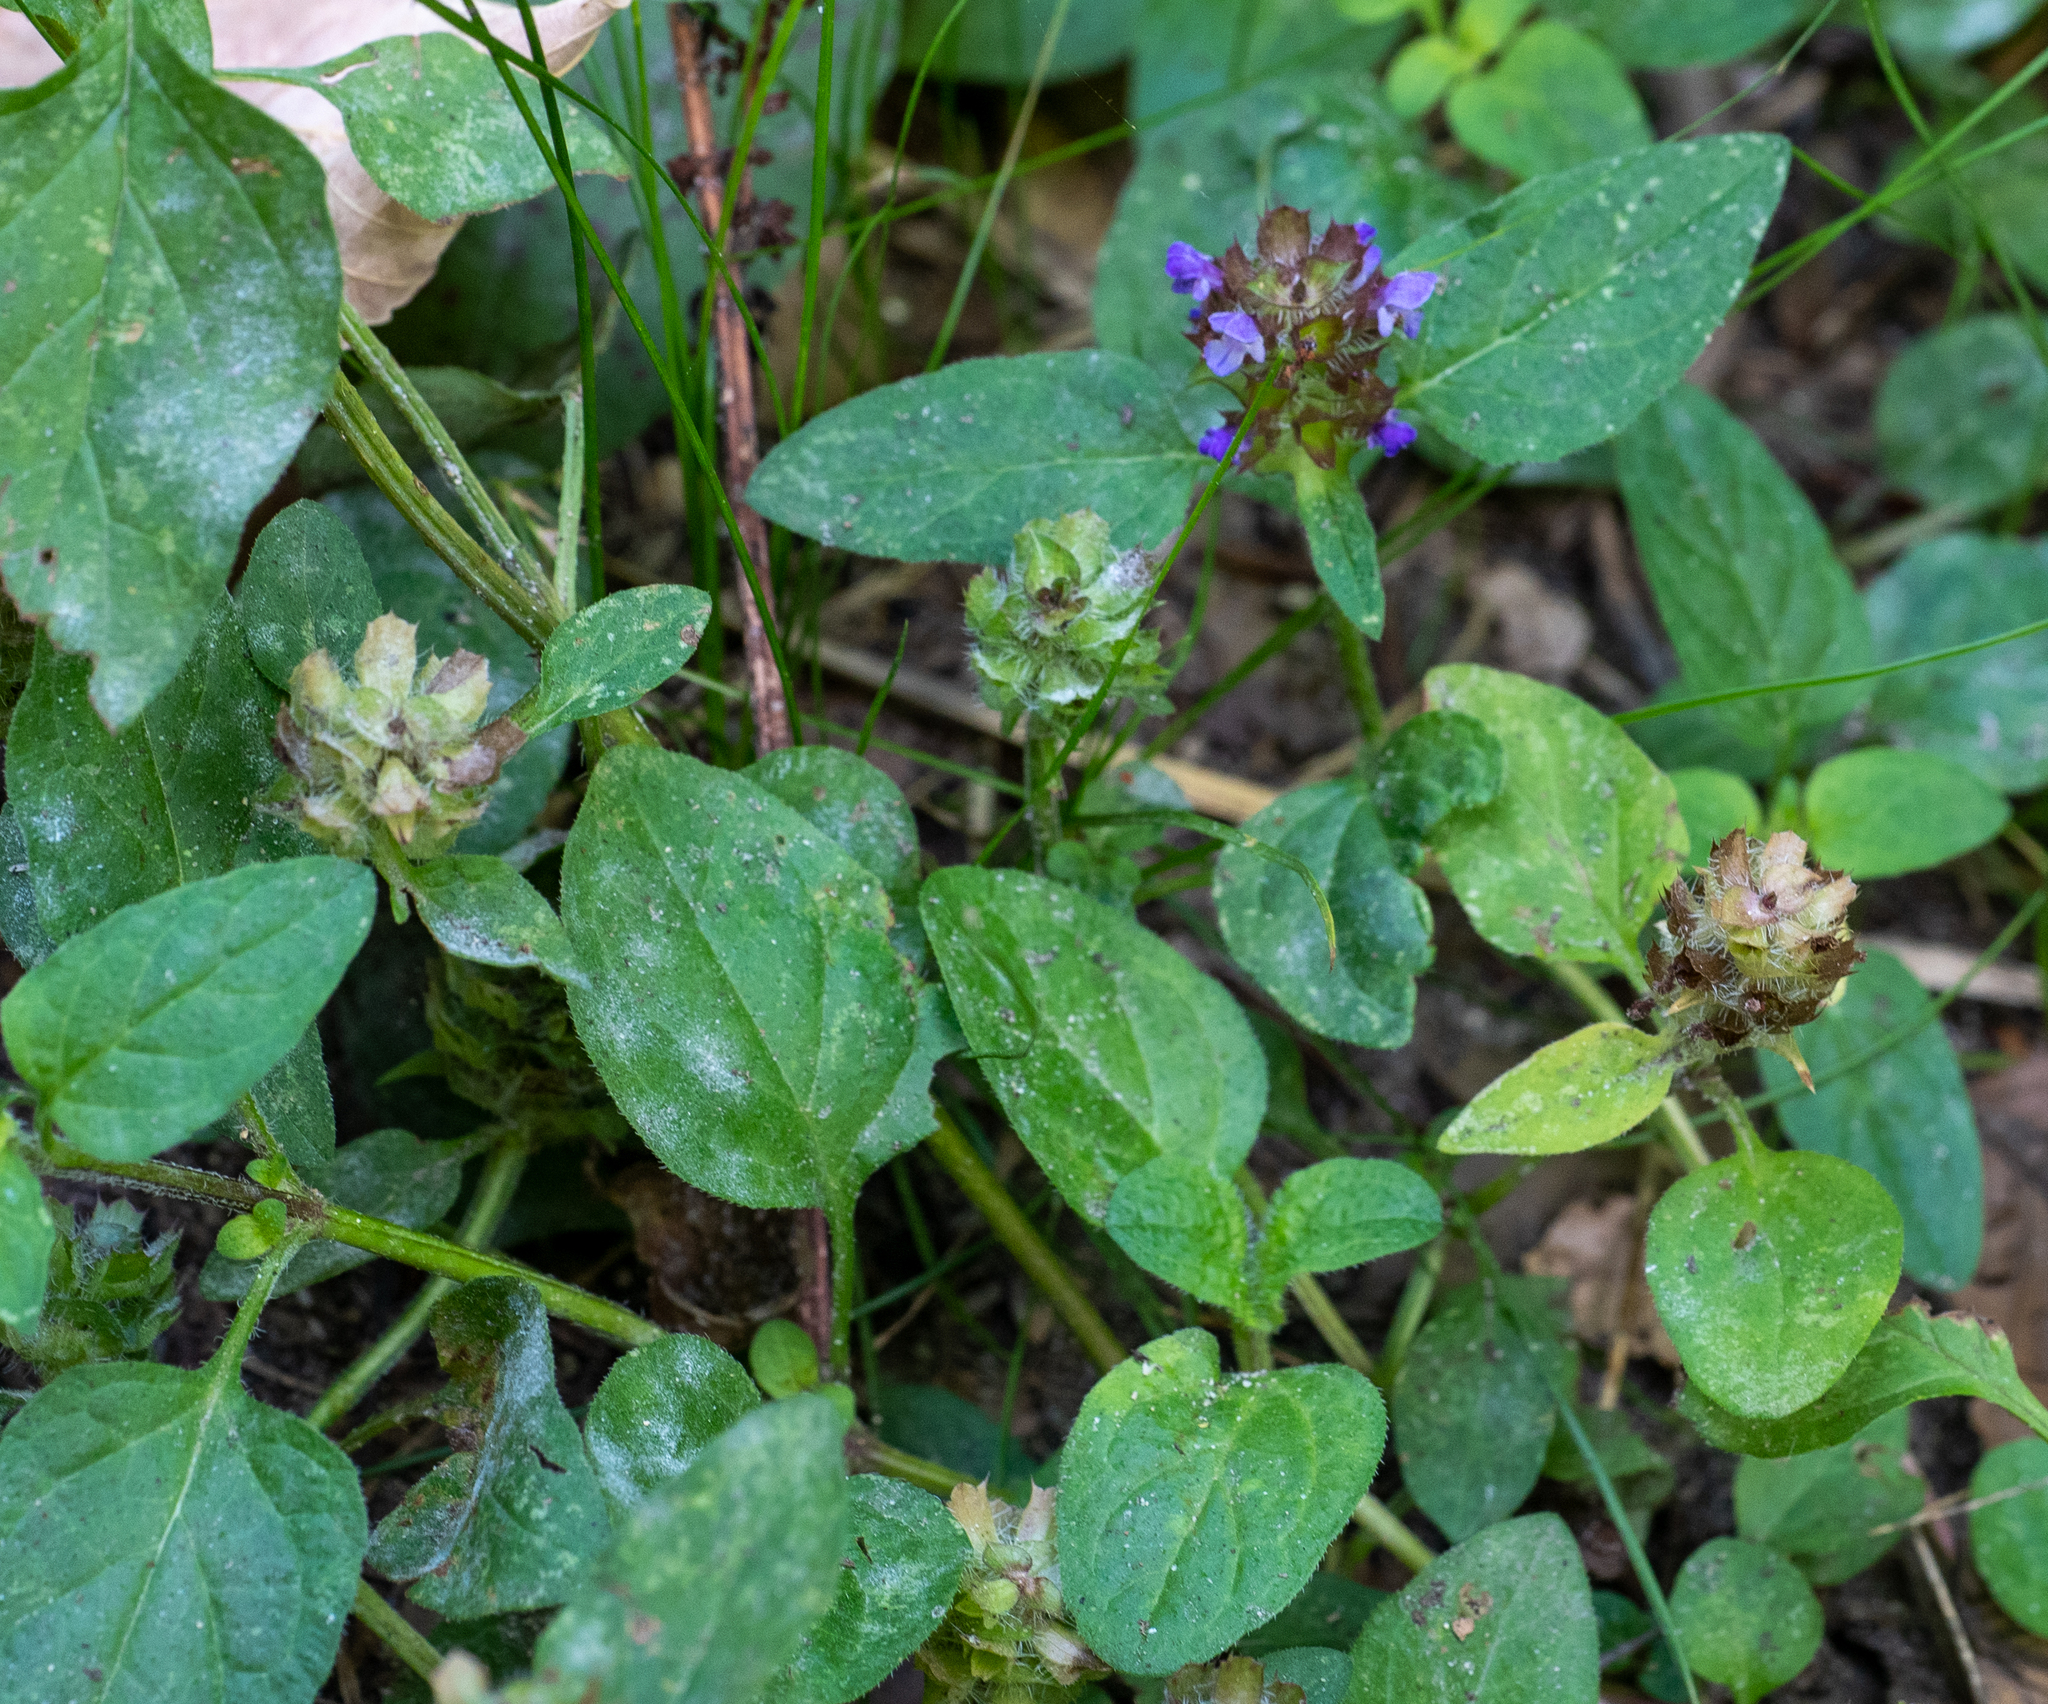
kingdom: Plantae
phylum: Tracheophyta
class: Magnoliopsida
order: Lamiales
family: Lamiaceae
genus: Prunella
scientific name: Prunella vulgaris
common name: Heal-all
